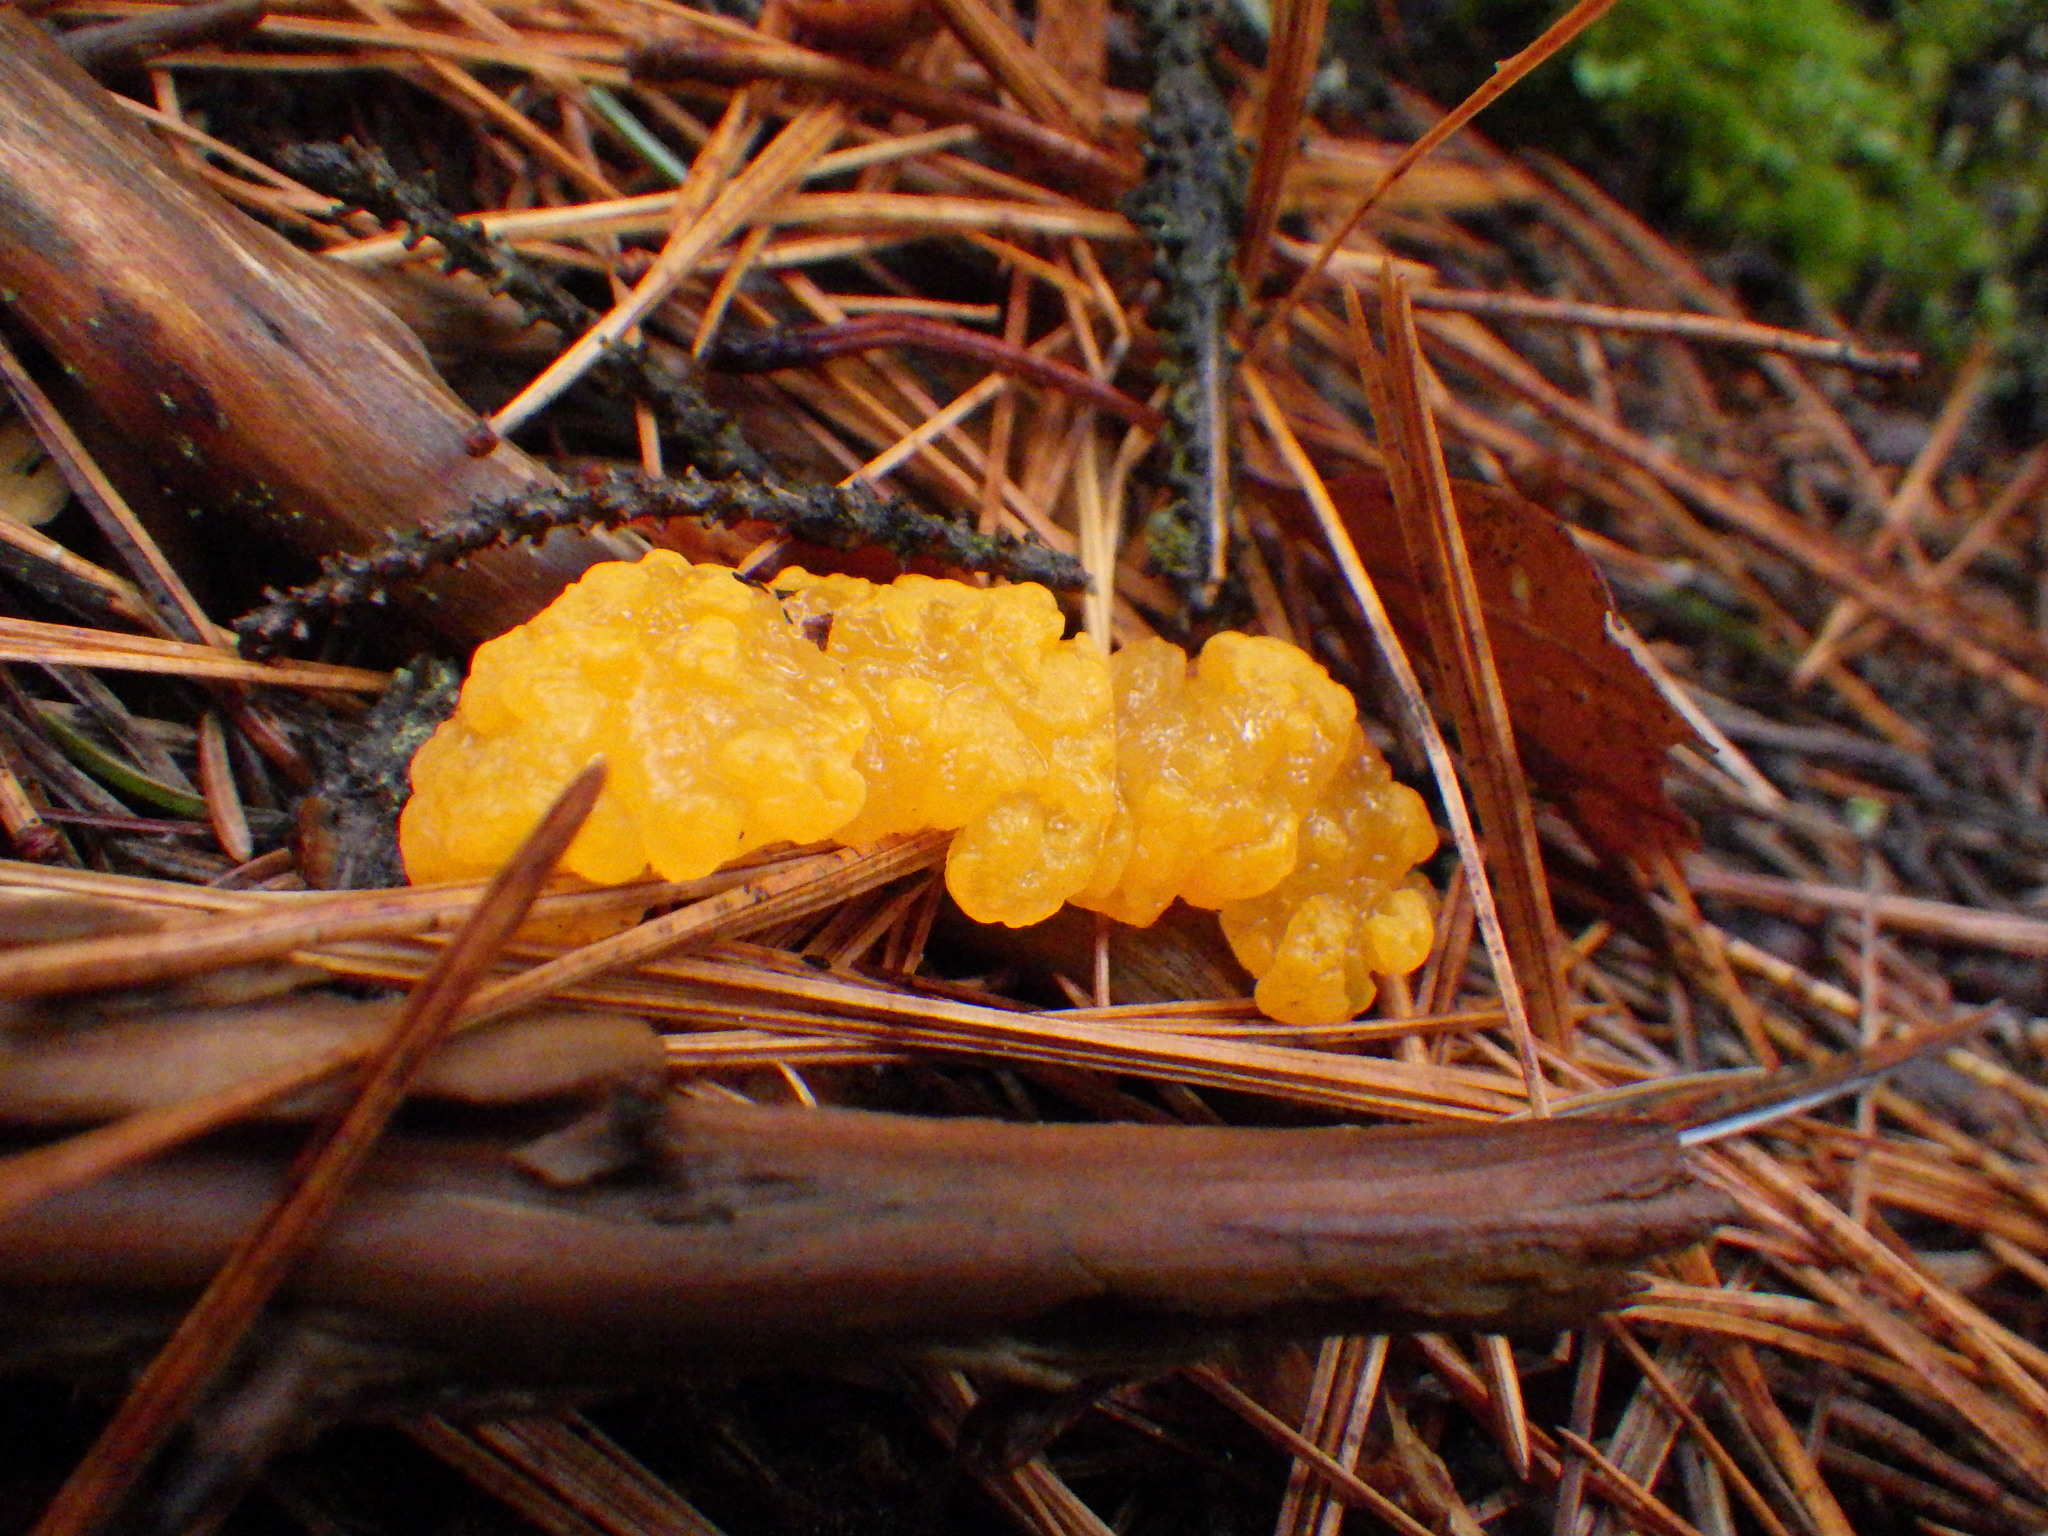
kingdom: Fungi
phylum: Basidiomycota
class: Dacrymycetes
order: Dacrymycetales
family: Dacrymycetaceae
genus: Dacrymyces
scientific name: Dacrymyces chrysospermus
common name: Orange jelly spot
